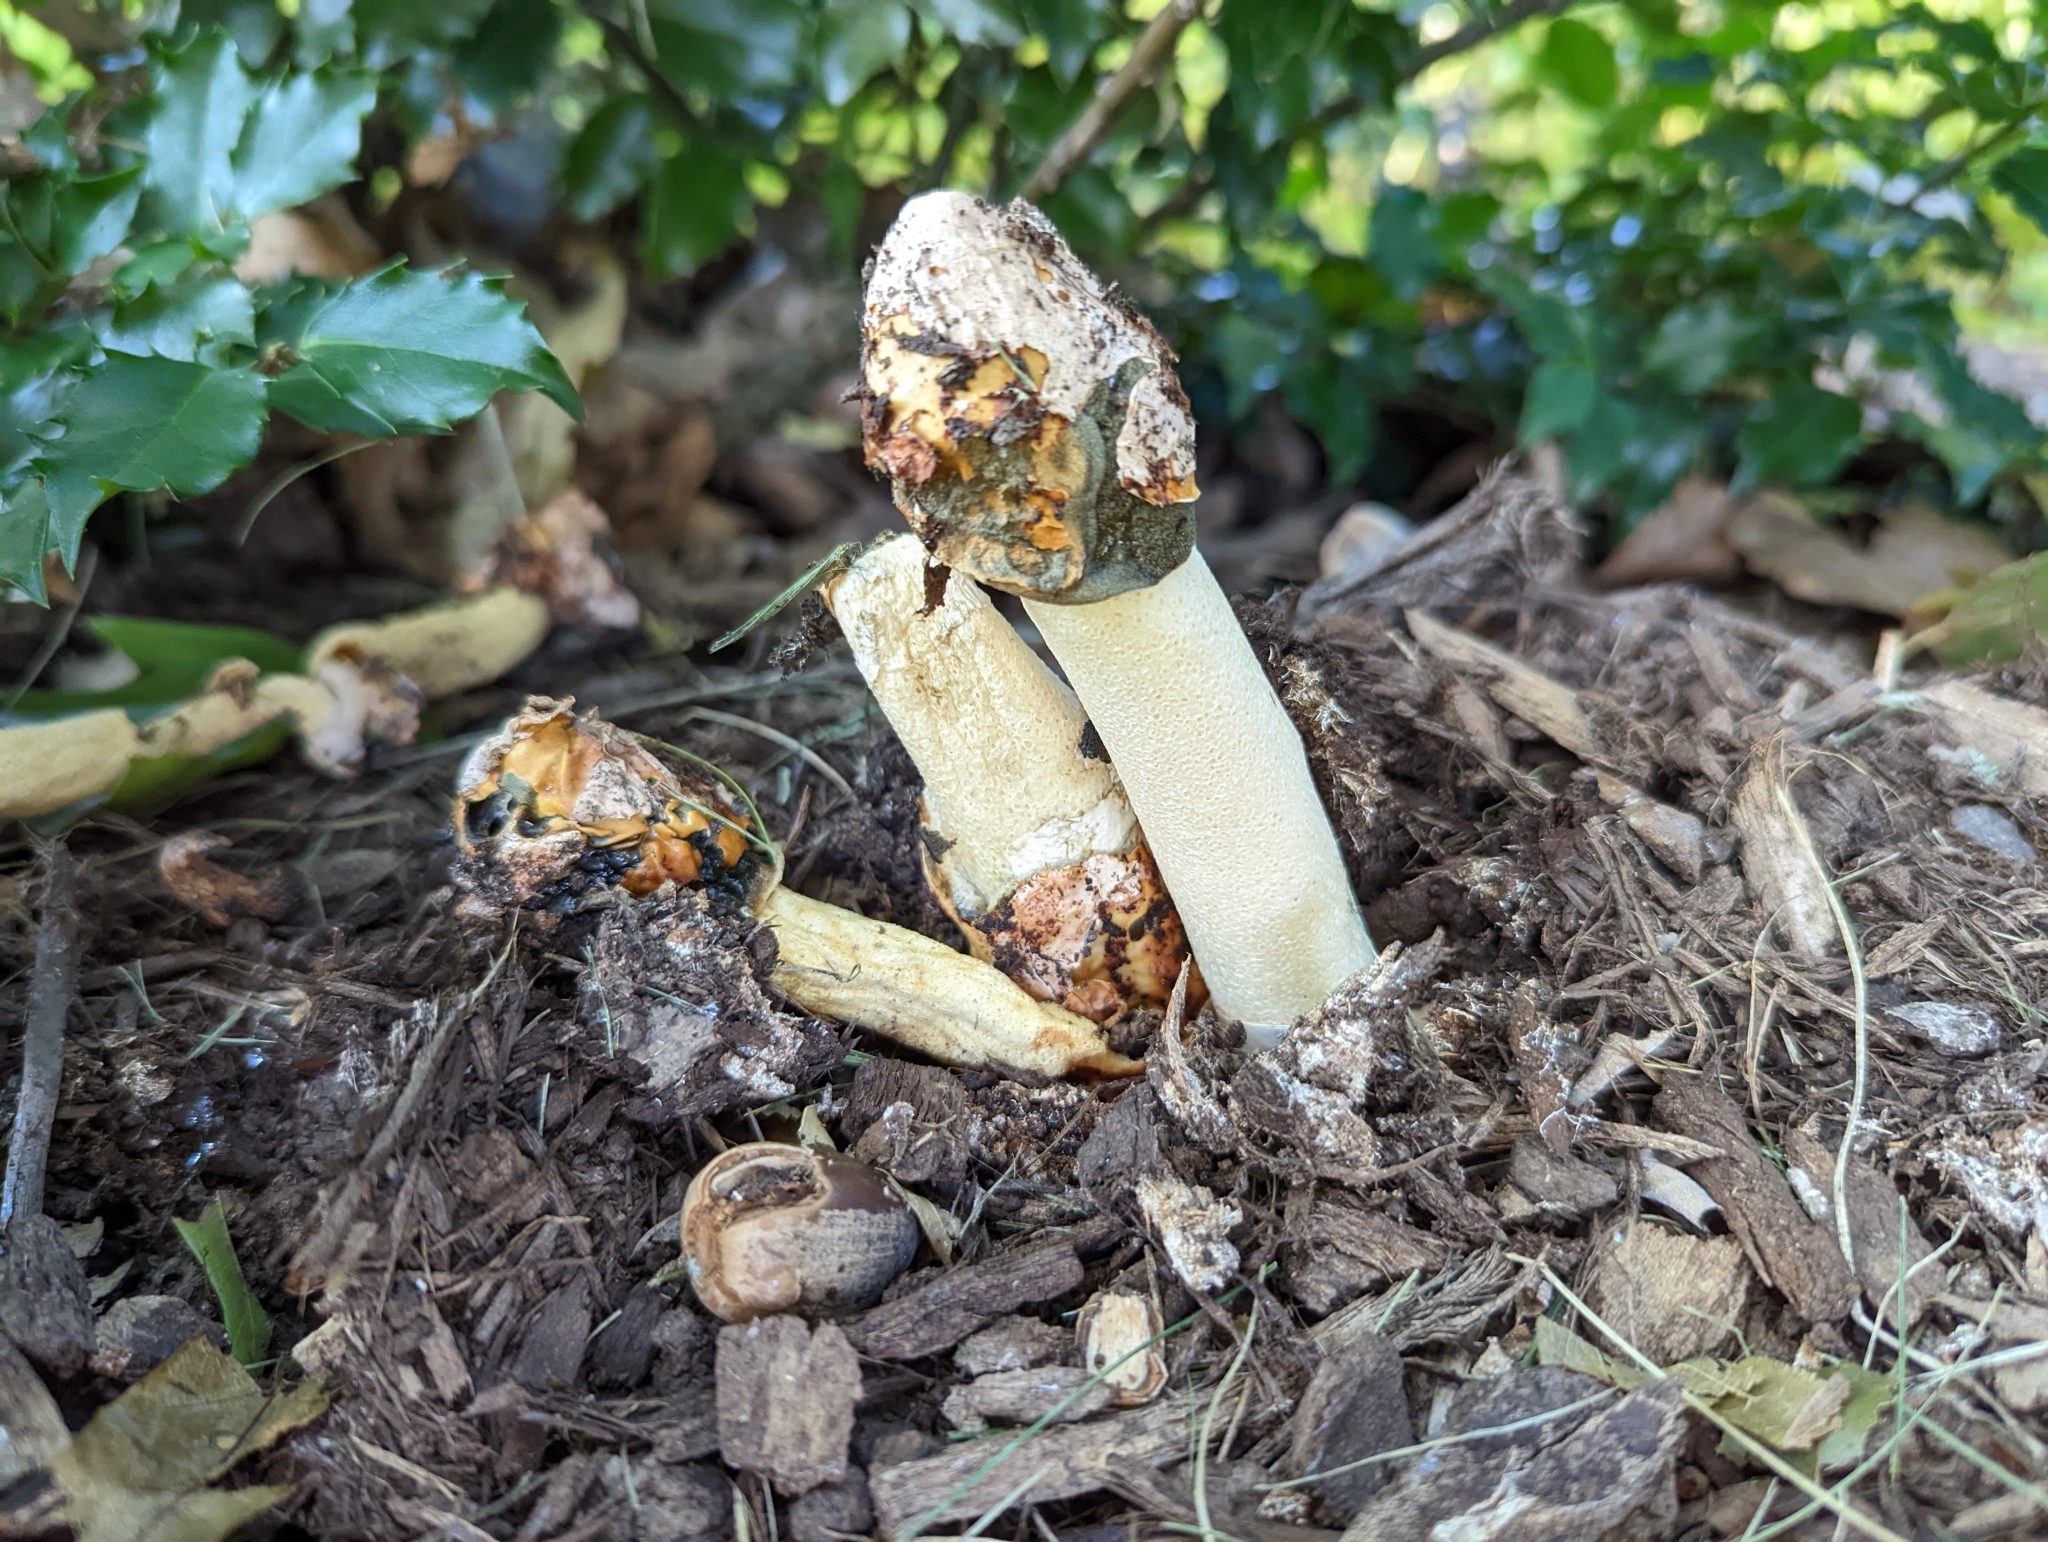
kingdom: Fungi
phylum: Basidiomycota
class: Agaricomycetes
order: Phallales
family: Phallaceae
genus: Phallus
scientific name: Phallus ravenelii
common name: Ravenel's stinkhorn
